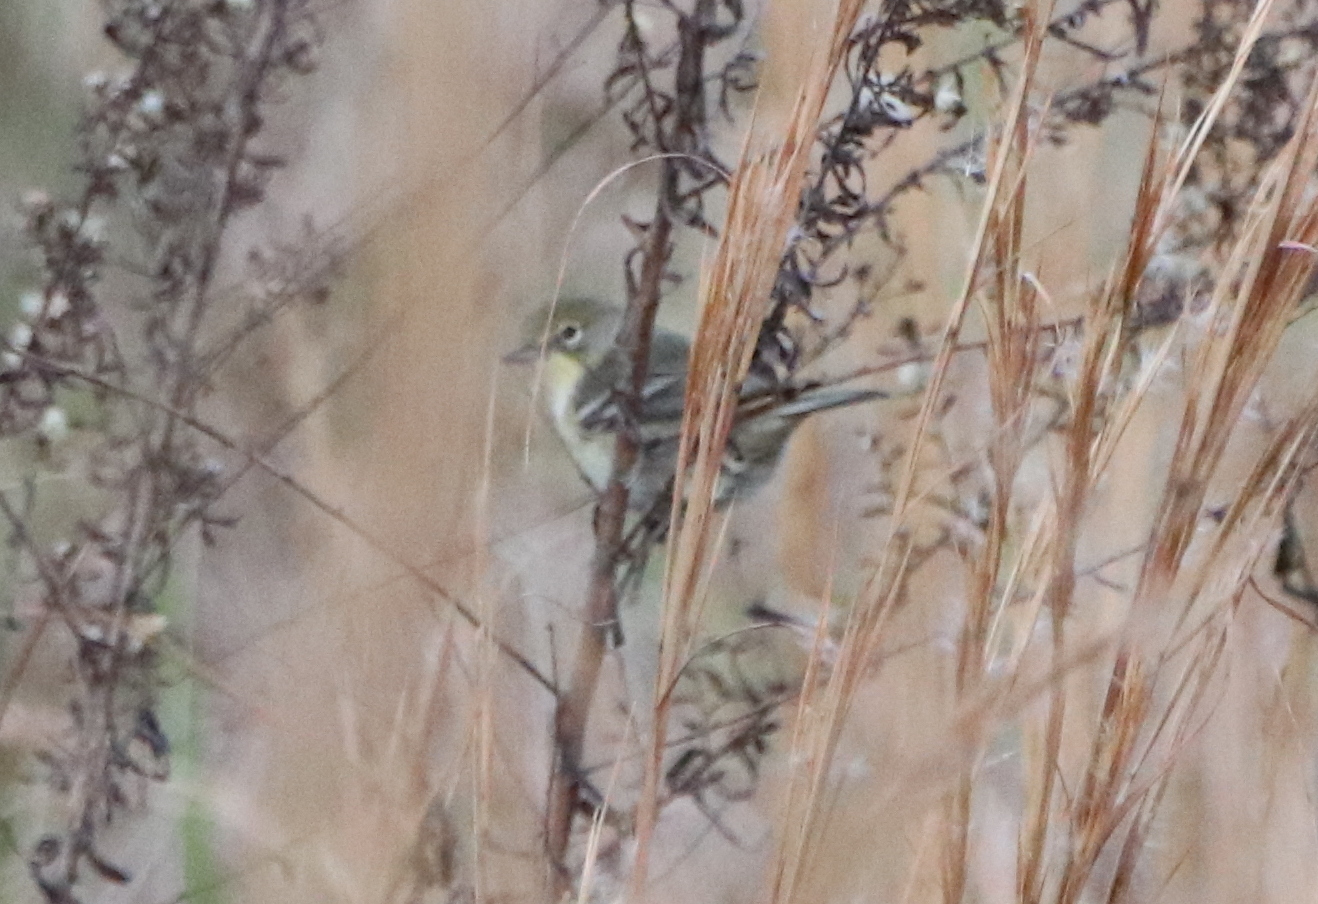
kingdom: Animalia
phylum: Chordata
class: Aves
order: Passeriformes
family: Parulidae
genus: Setophaga
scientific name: Setophaga pinus
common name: Pine warbler
